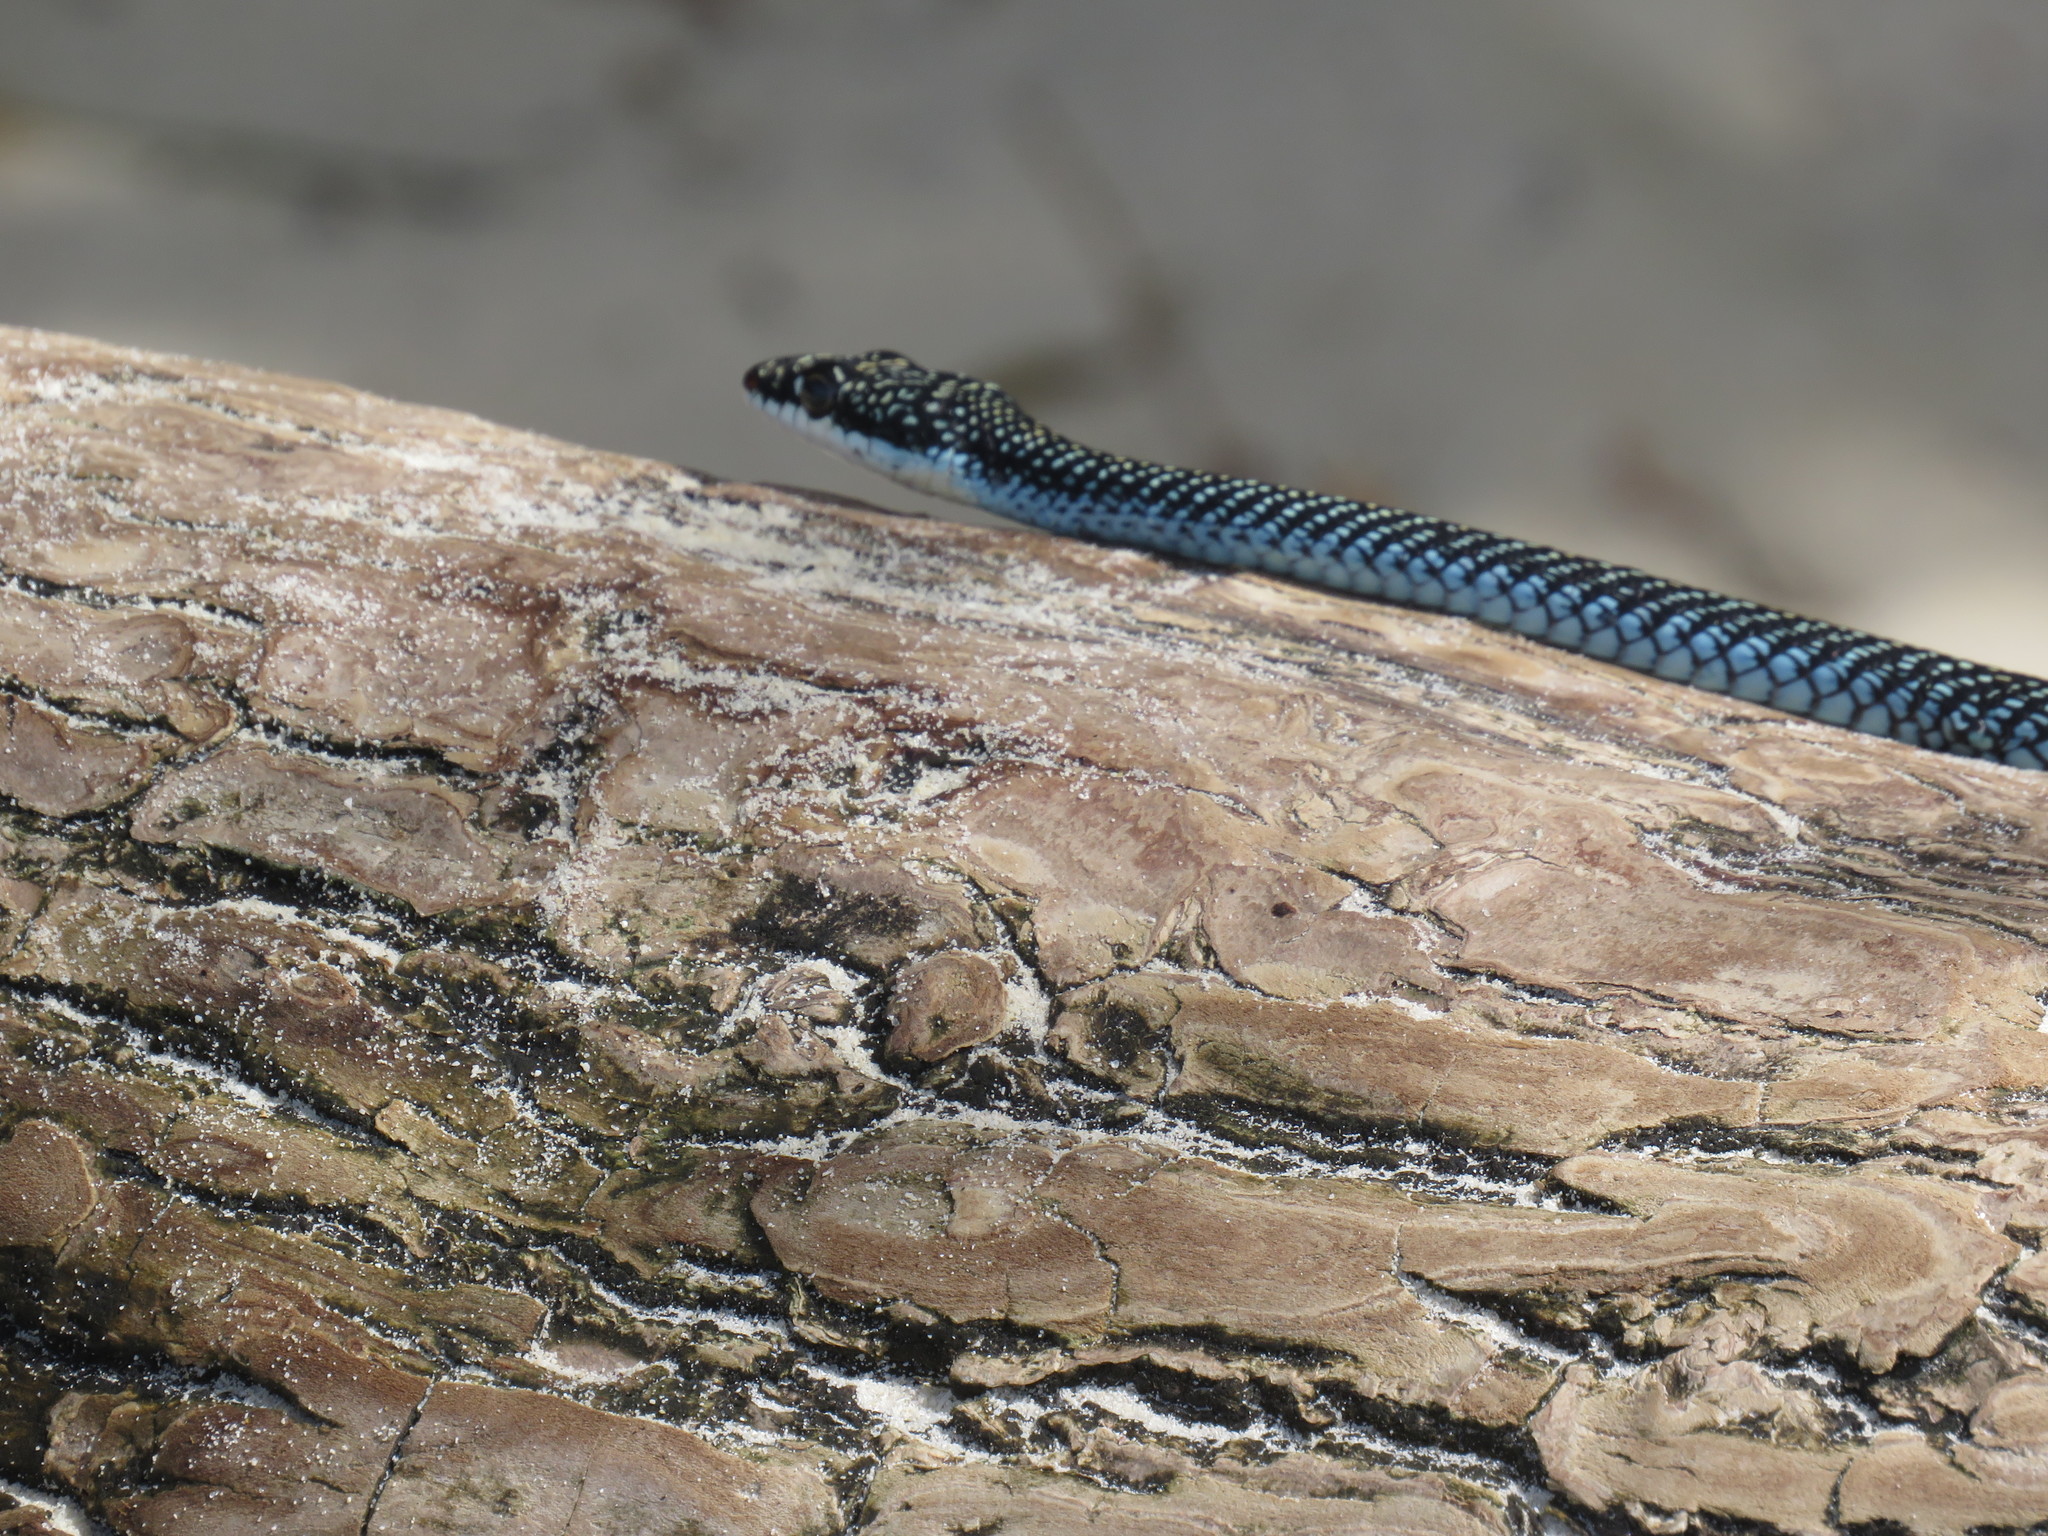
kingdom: Animalia
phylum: Chordata
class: Squamata
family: Colubridae
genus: Chrysopelea
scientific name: Chrysopelea ornata
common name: Golden flying snake
